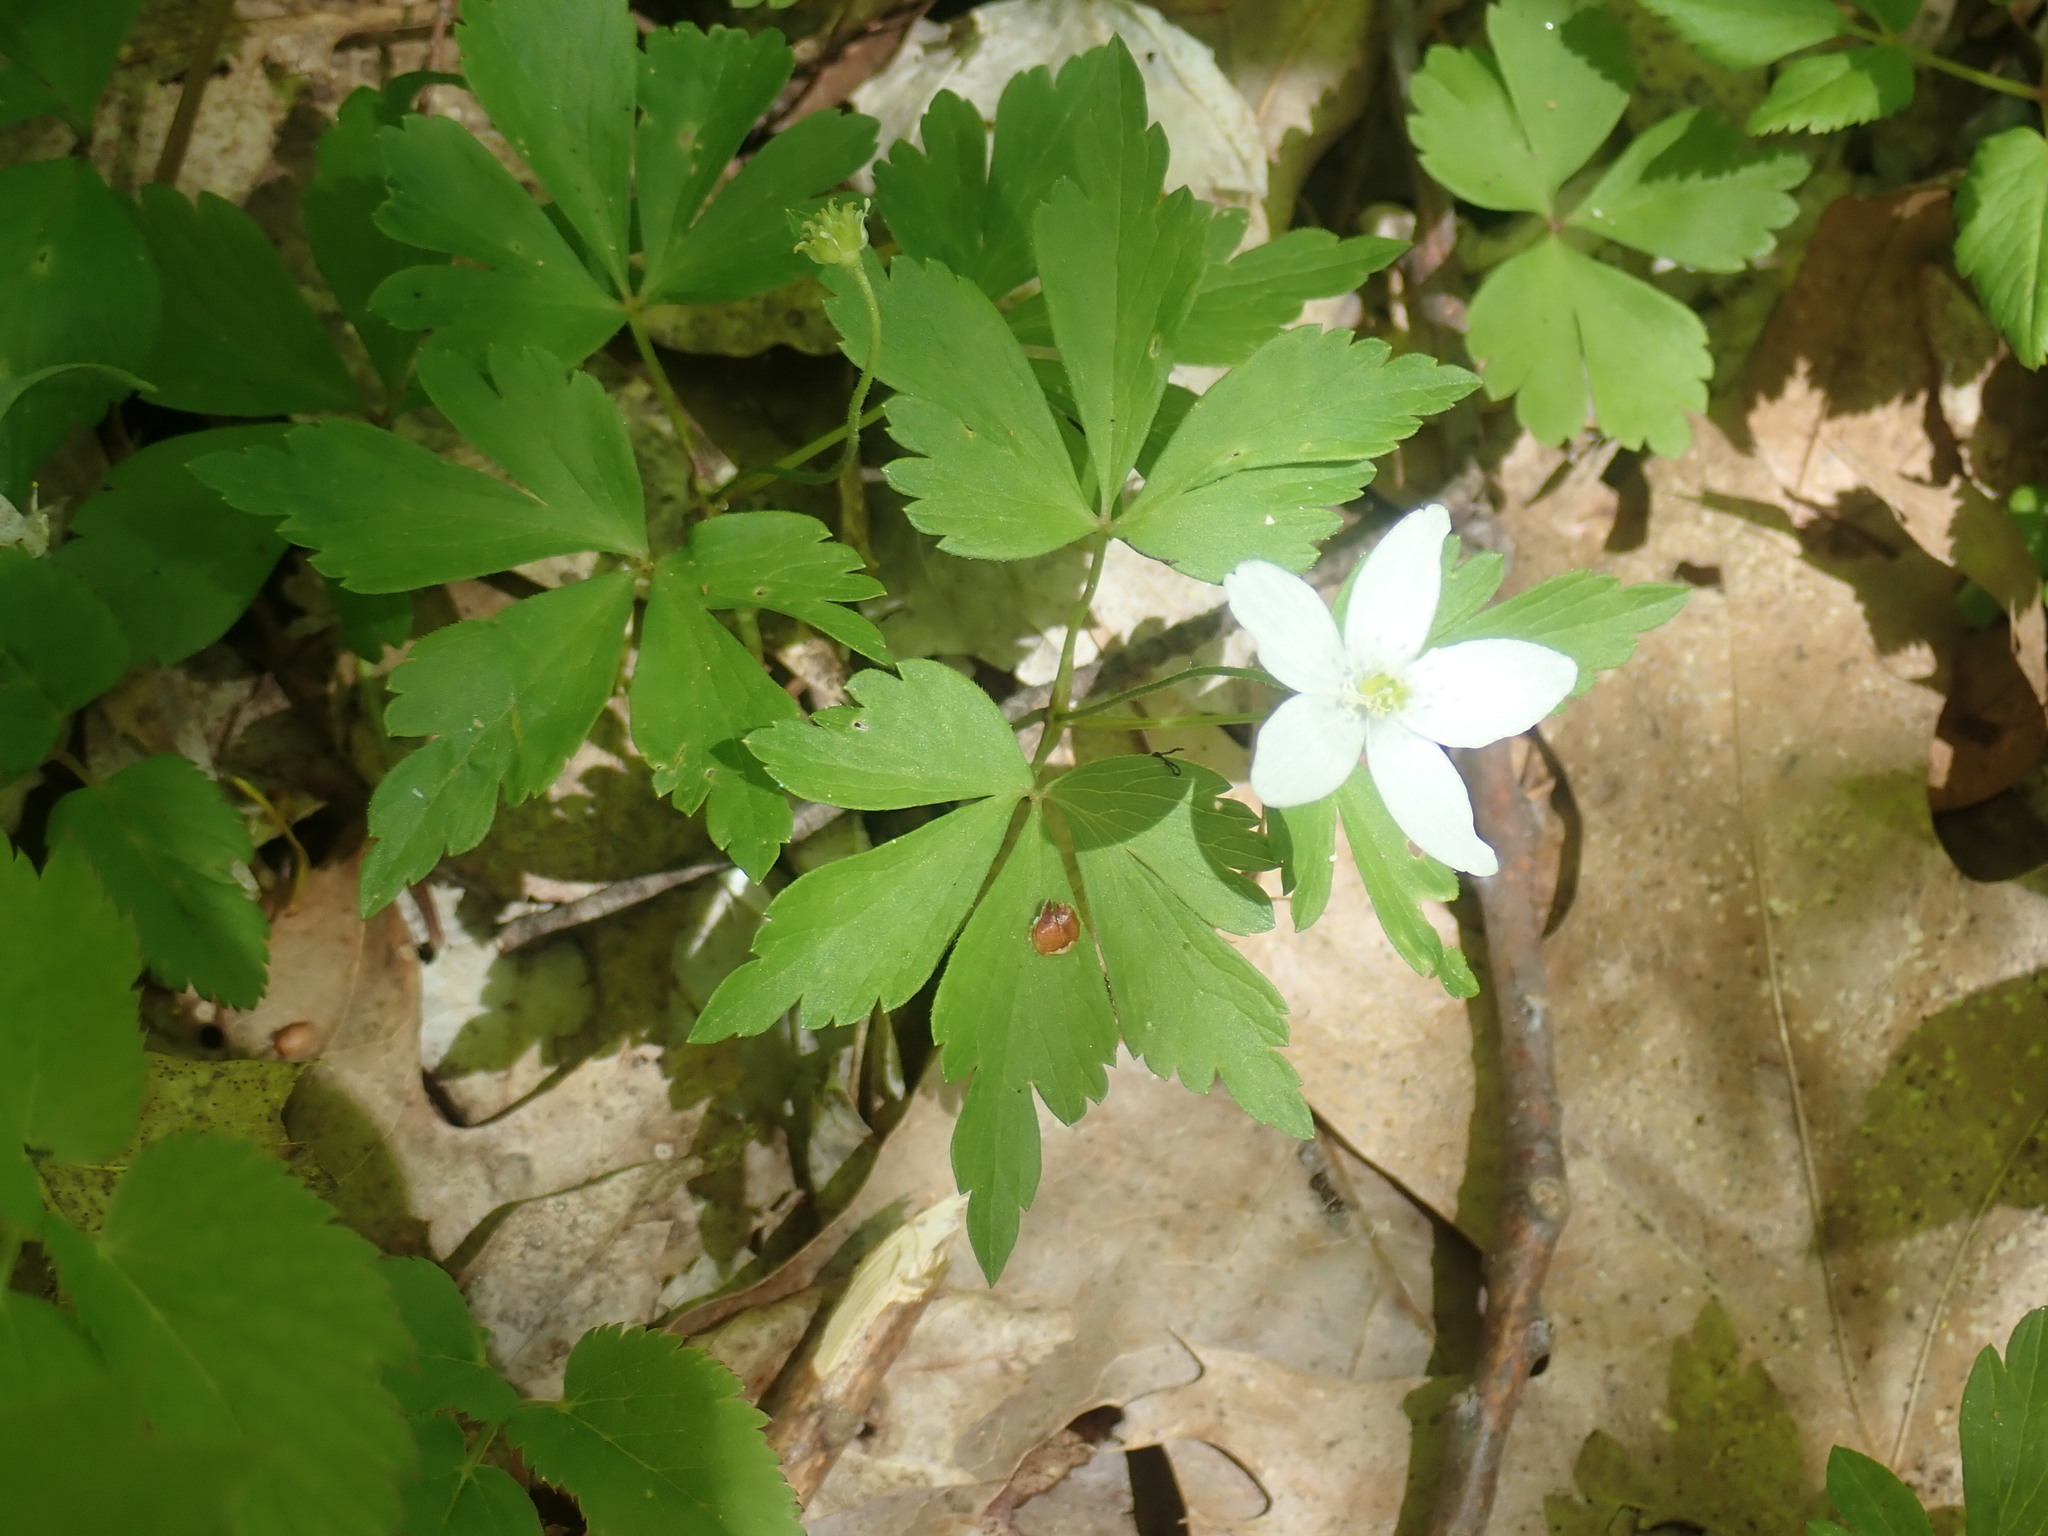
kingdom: Plantae
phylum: Tracheophyta
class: Magnoliopsida
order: Ranunculales
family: Ranunculaceae
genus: Anemone
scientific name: Anemone quinquefolia
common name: Wood anemone
